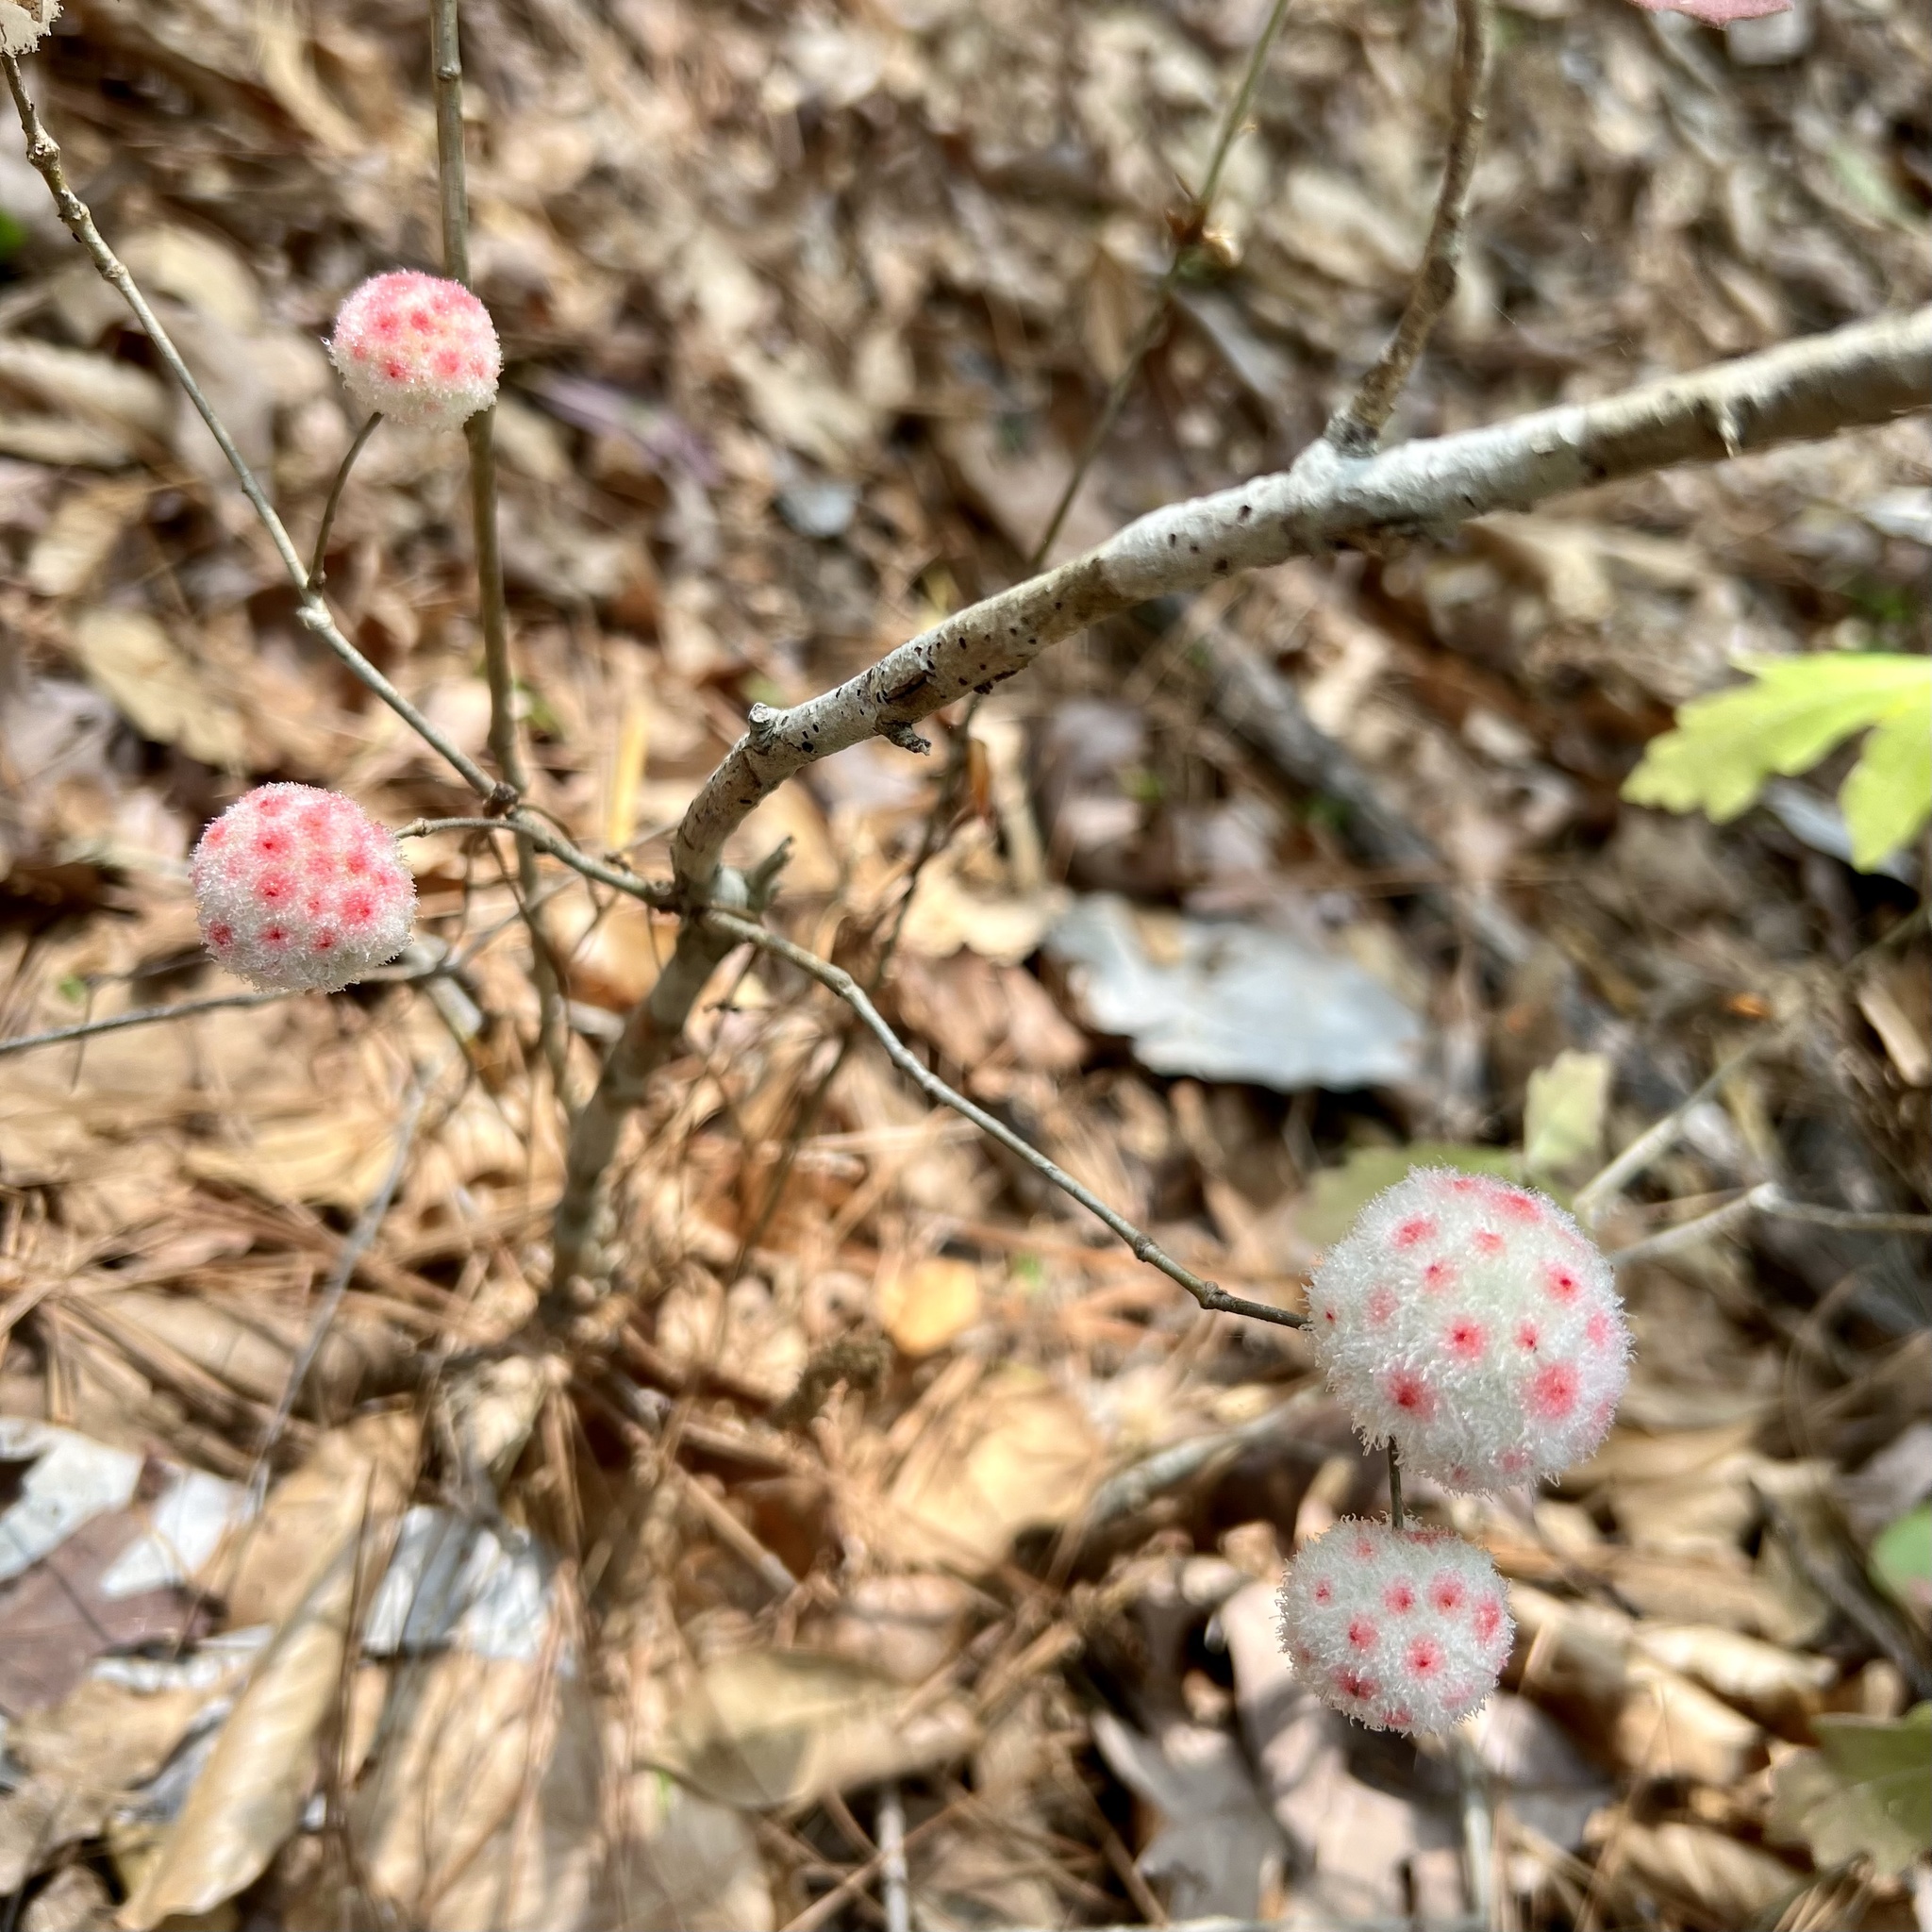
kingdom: Animalia
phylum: Arthropoda
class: Insecta
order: Hymenoptera
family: Cynipidae
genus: Callirhytis
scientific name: Callirhytis
